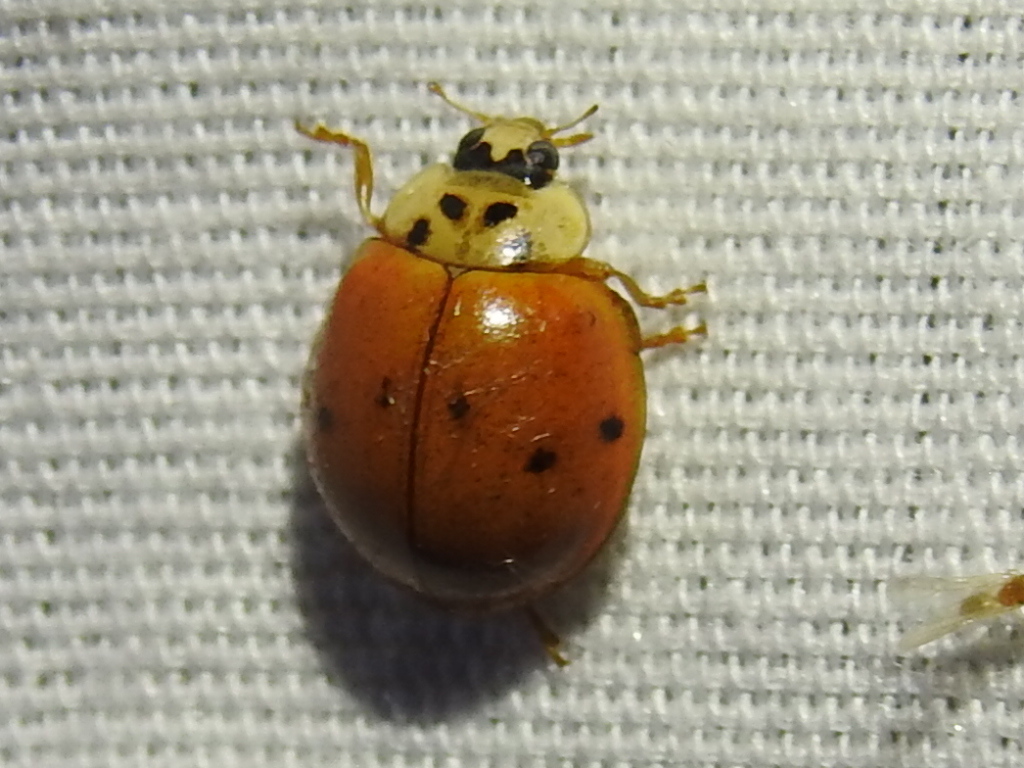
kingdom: Animalia
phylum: Arthropoda
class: Insecta
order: Coleoptera
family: Coccinellidae
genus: Harmonia
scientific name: Harmonia axyridis
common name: Harlequin ladybird
